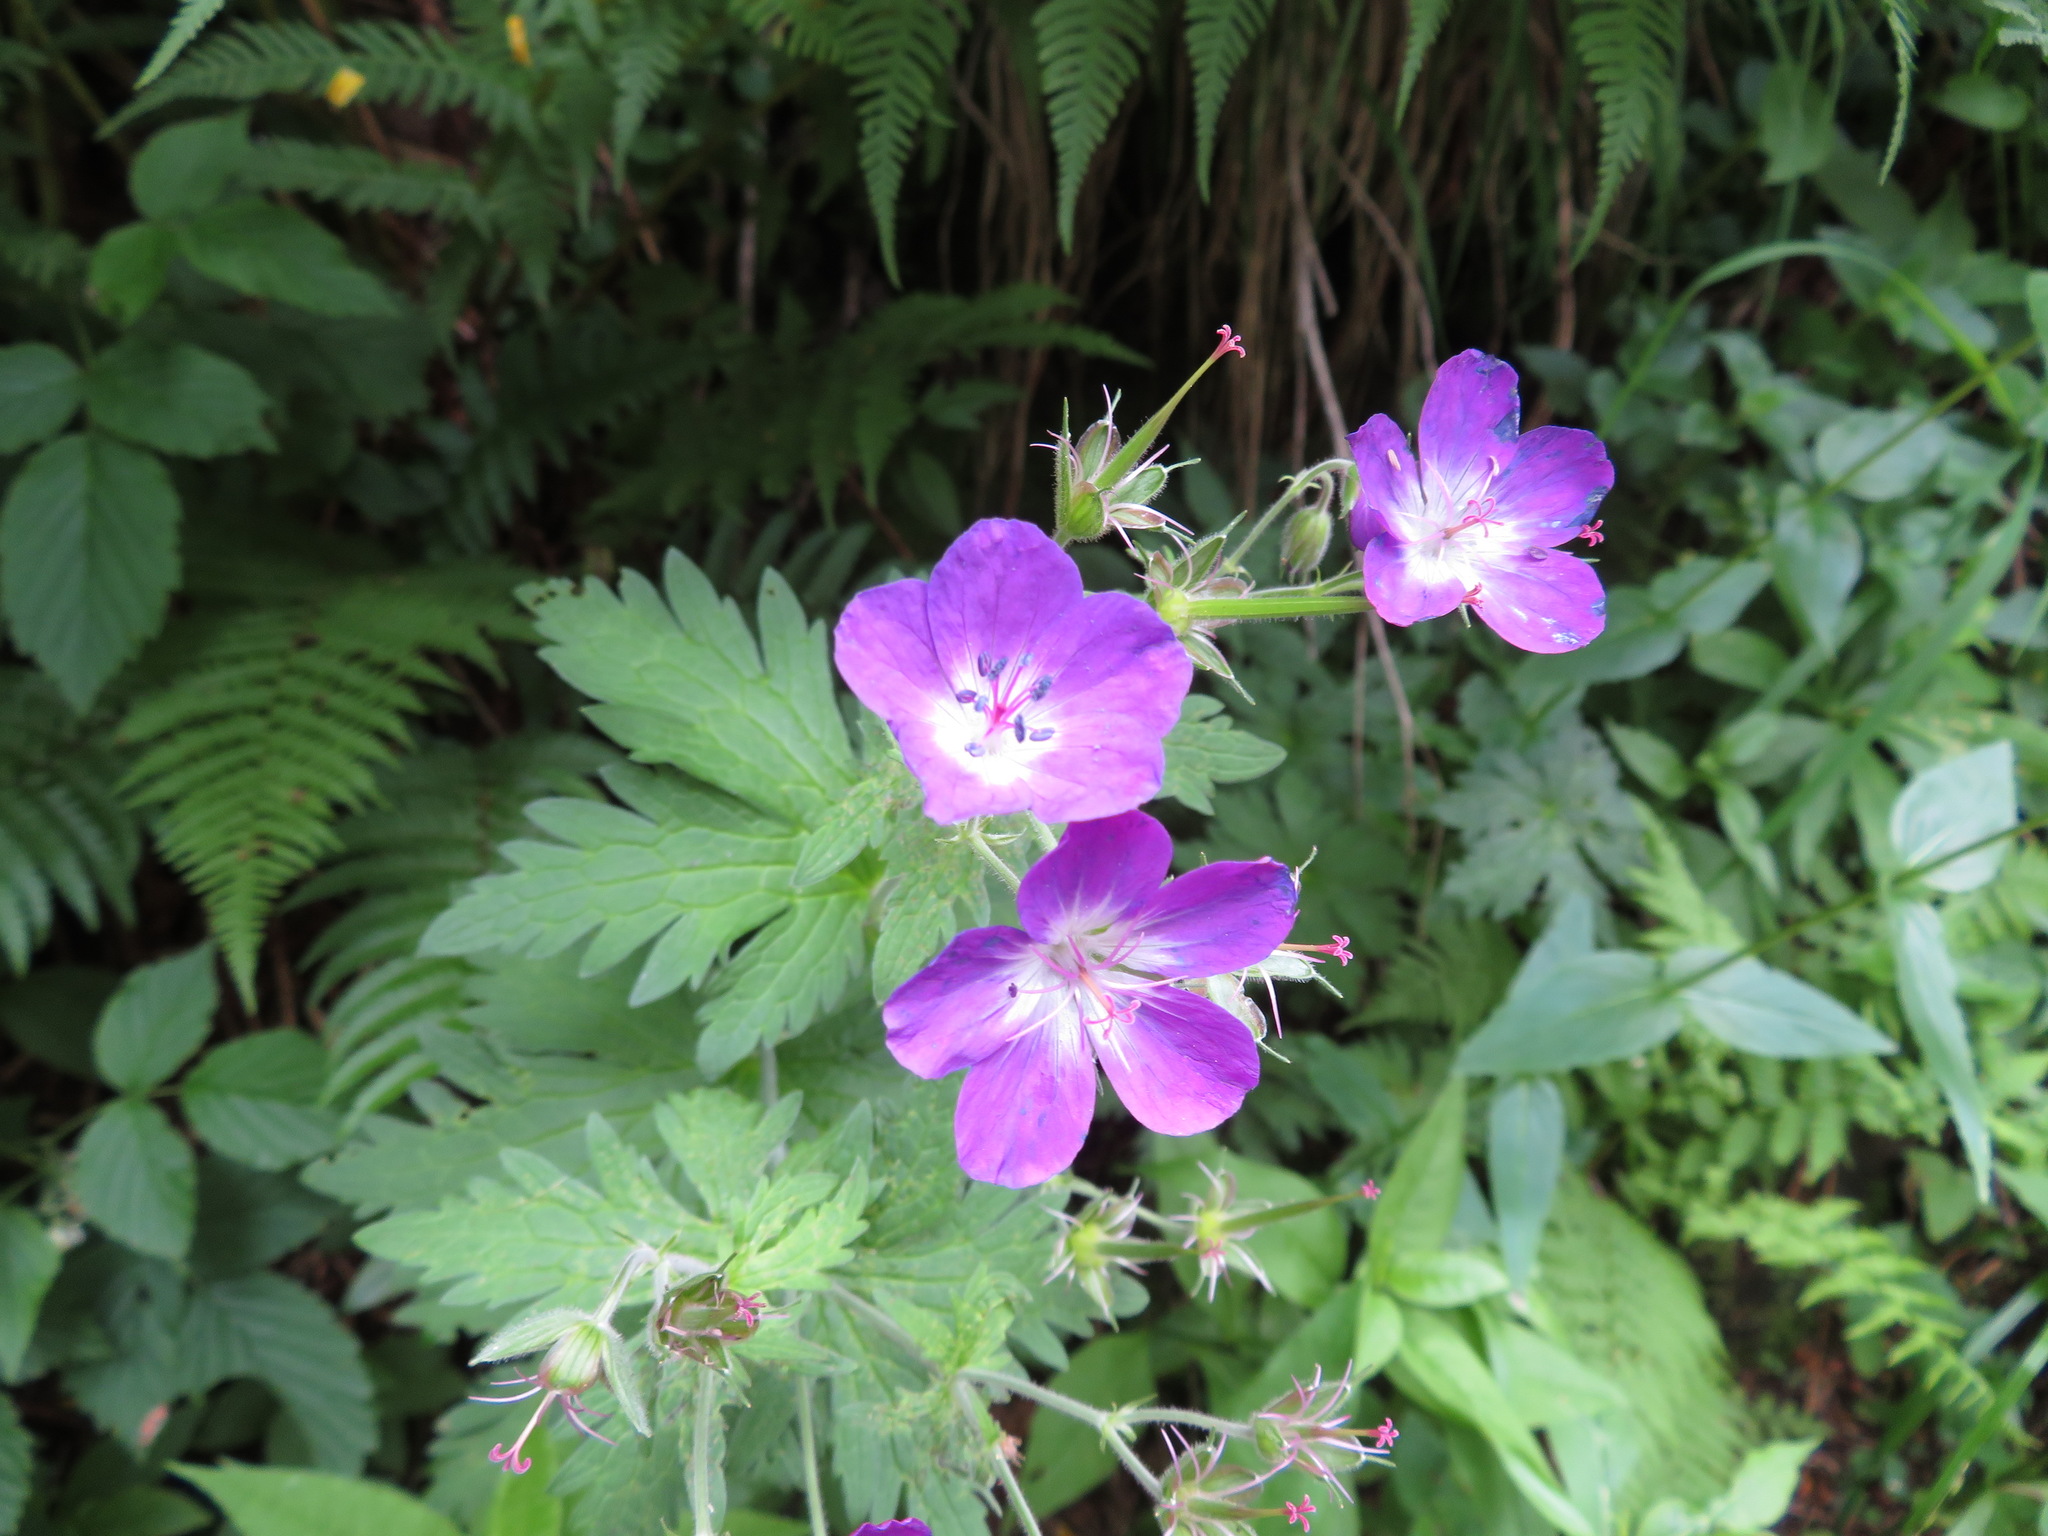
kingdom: Plantae
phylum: Tracheophyta
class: Magnoliopsida
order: Geraniales
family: Geraniaceae
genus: Geranium
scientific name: Geranium sylvaticum
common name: Wood crane's-bill
